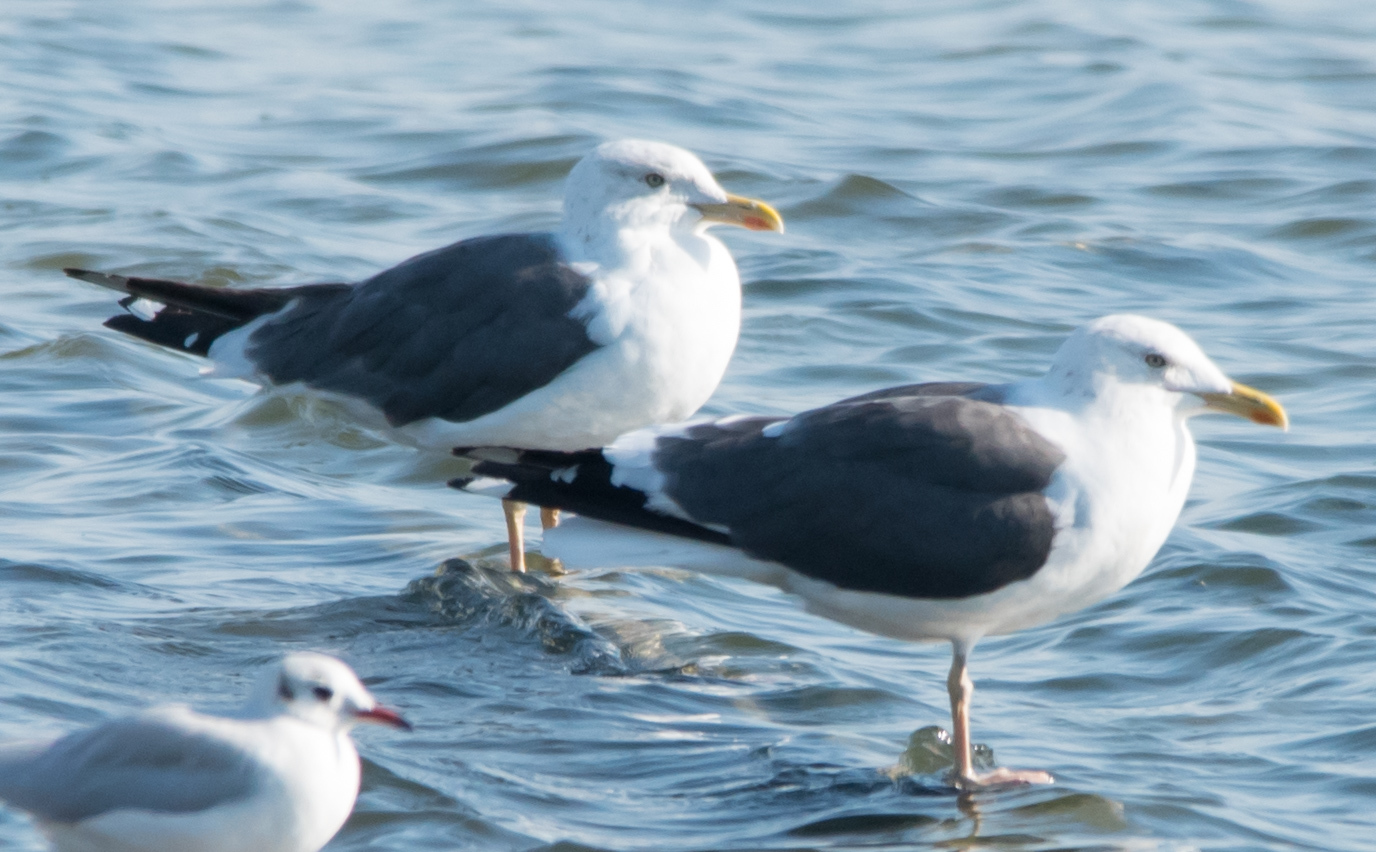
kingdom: Animalia
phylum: Chordata
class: Aves
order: Charadriiformes
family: Laridae
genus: Larus
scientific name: Larus fuscus
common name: Lesser black-backed gull
